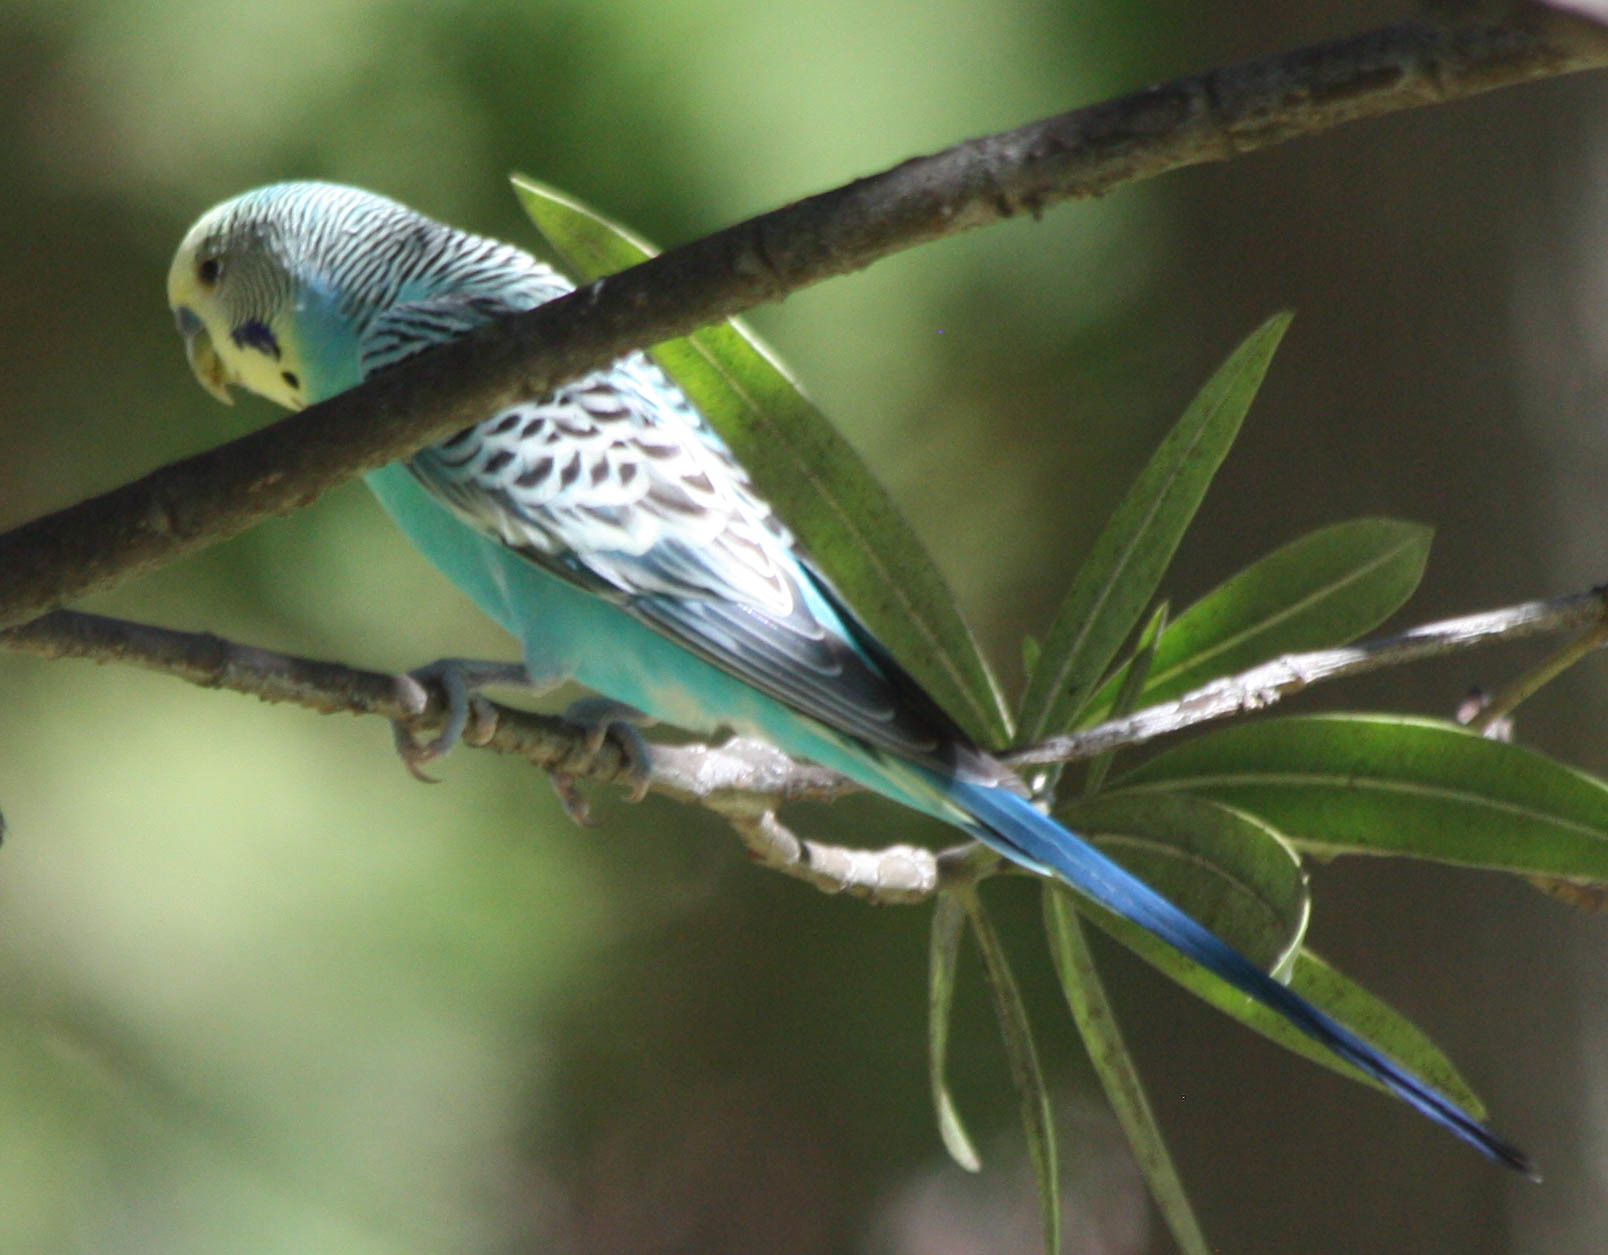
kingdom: Animalia
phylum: Chordata
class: Aves
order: Psittaciformes
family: Psittacidae
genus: Melopsittacus
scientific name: Melopsittacus undulatus
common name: Budgerigar
